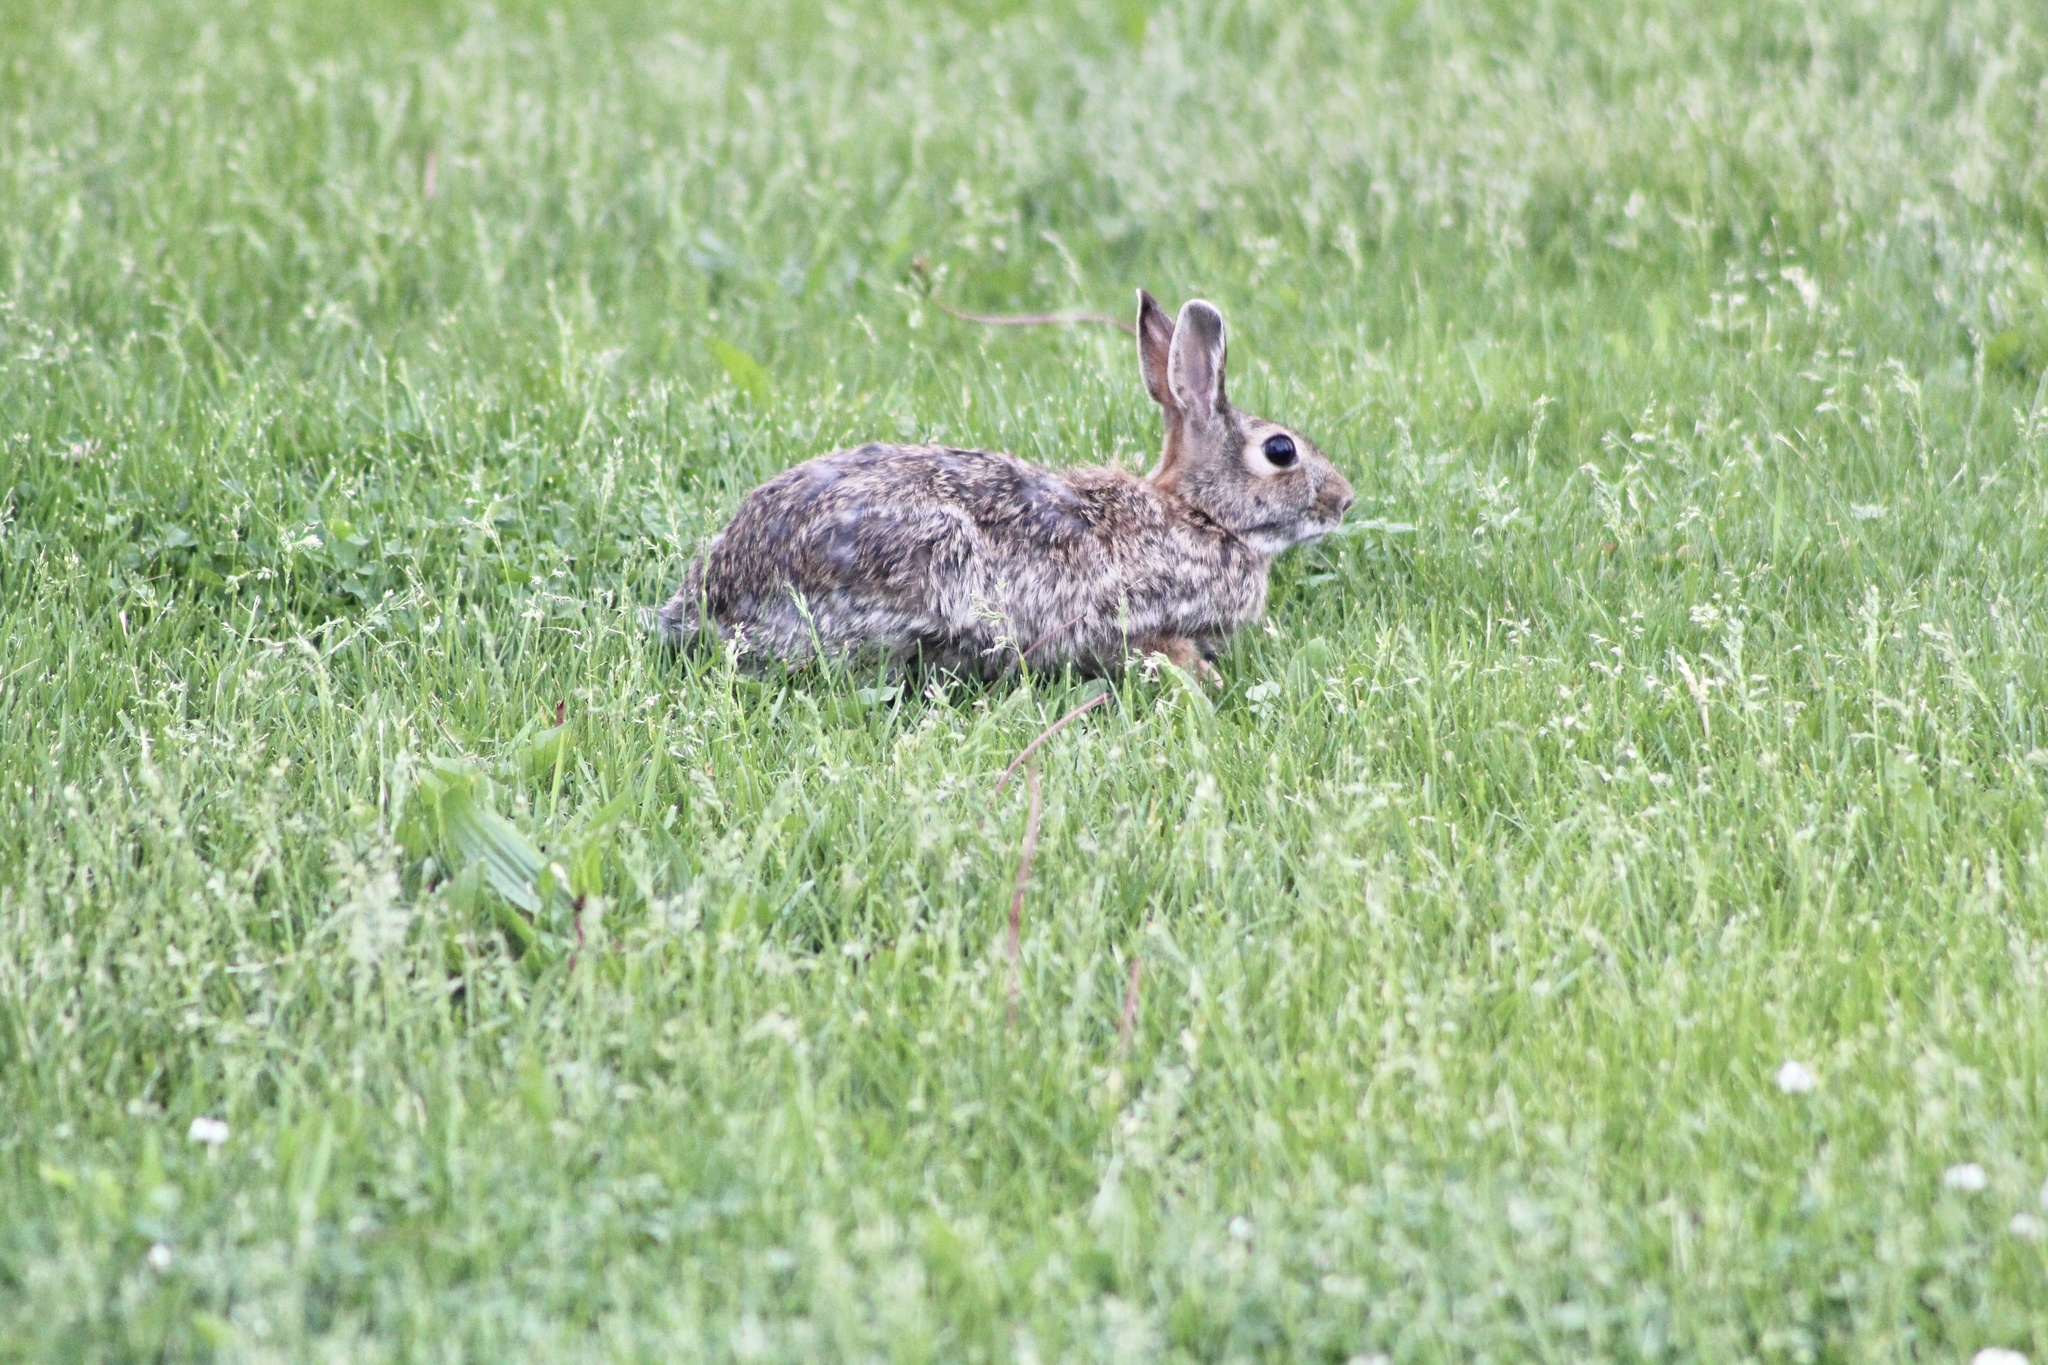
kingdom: Animalia
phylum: Chordata
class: Mammalia
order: Lagomorpha
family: Leporidae
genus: Sylvilagus
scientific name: Sylvilagus floridanus
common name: Eastern cottontail
